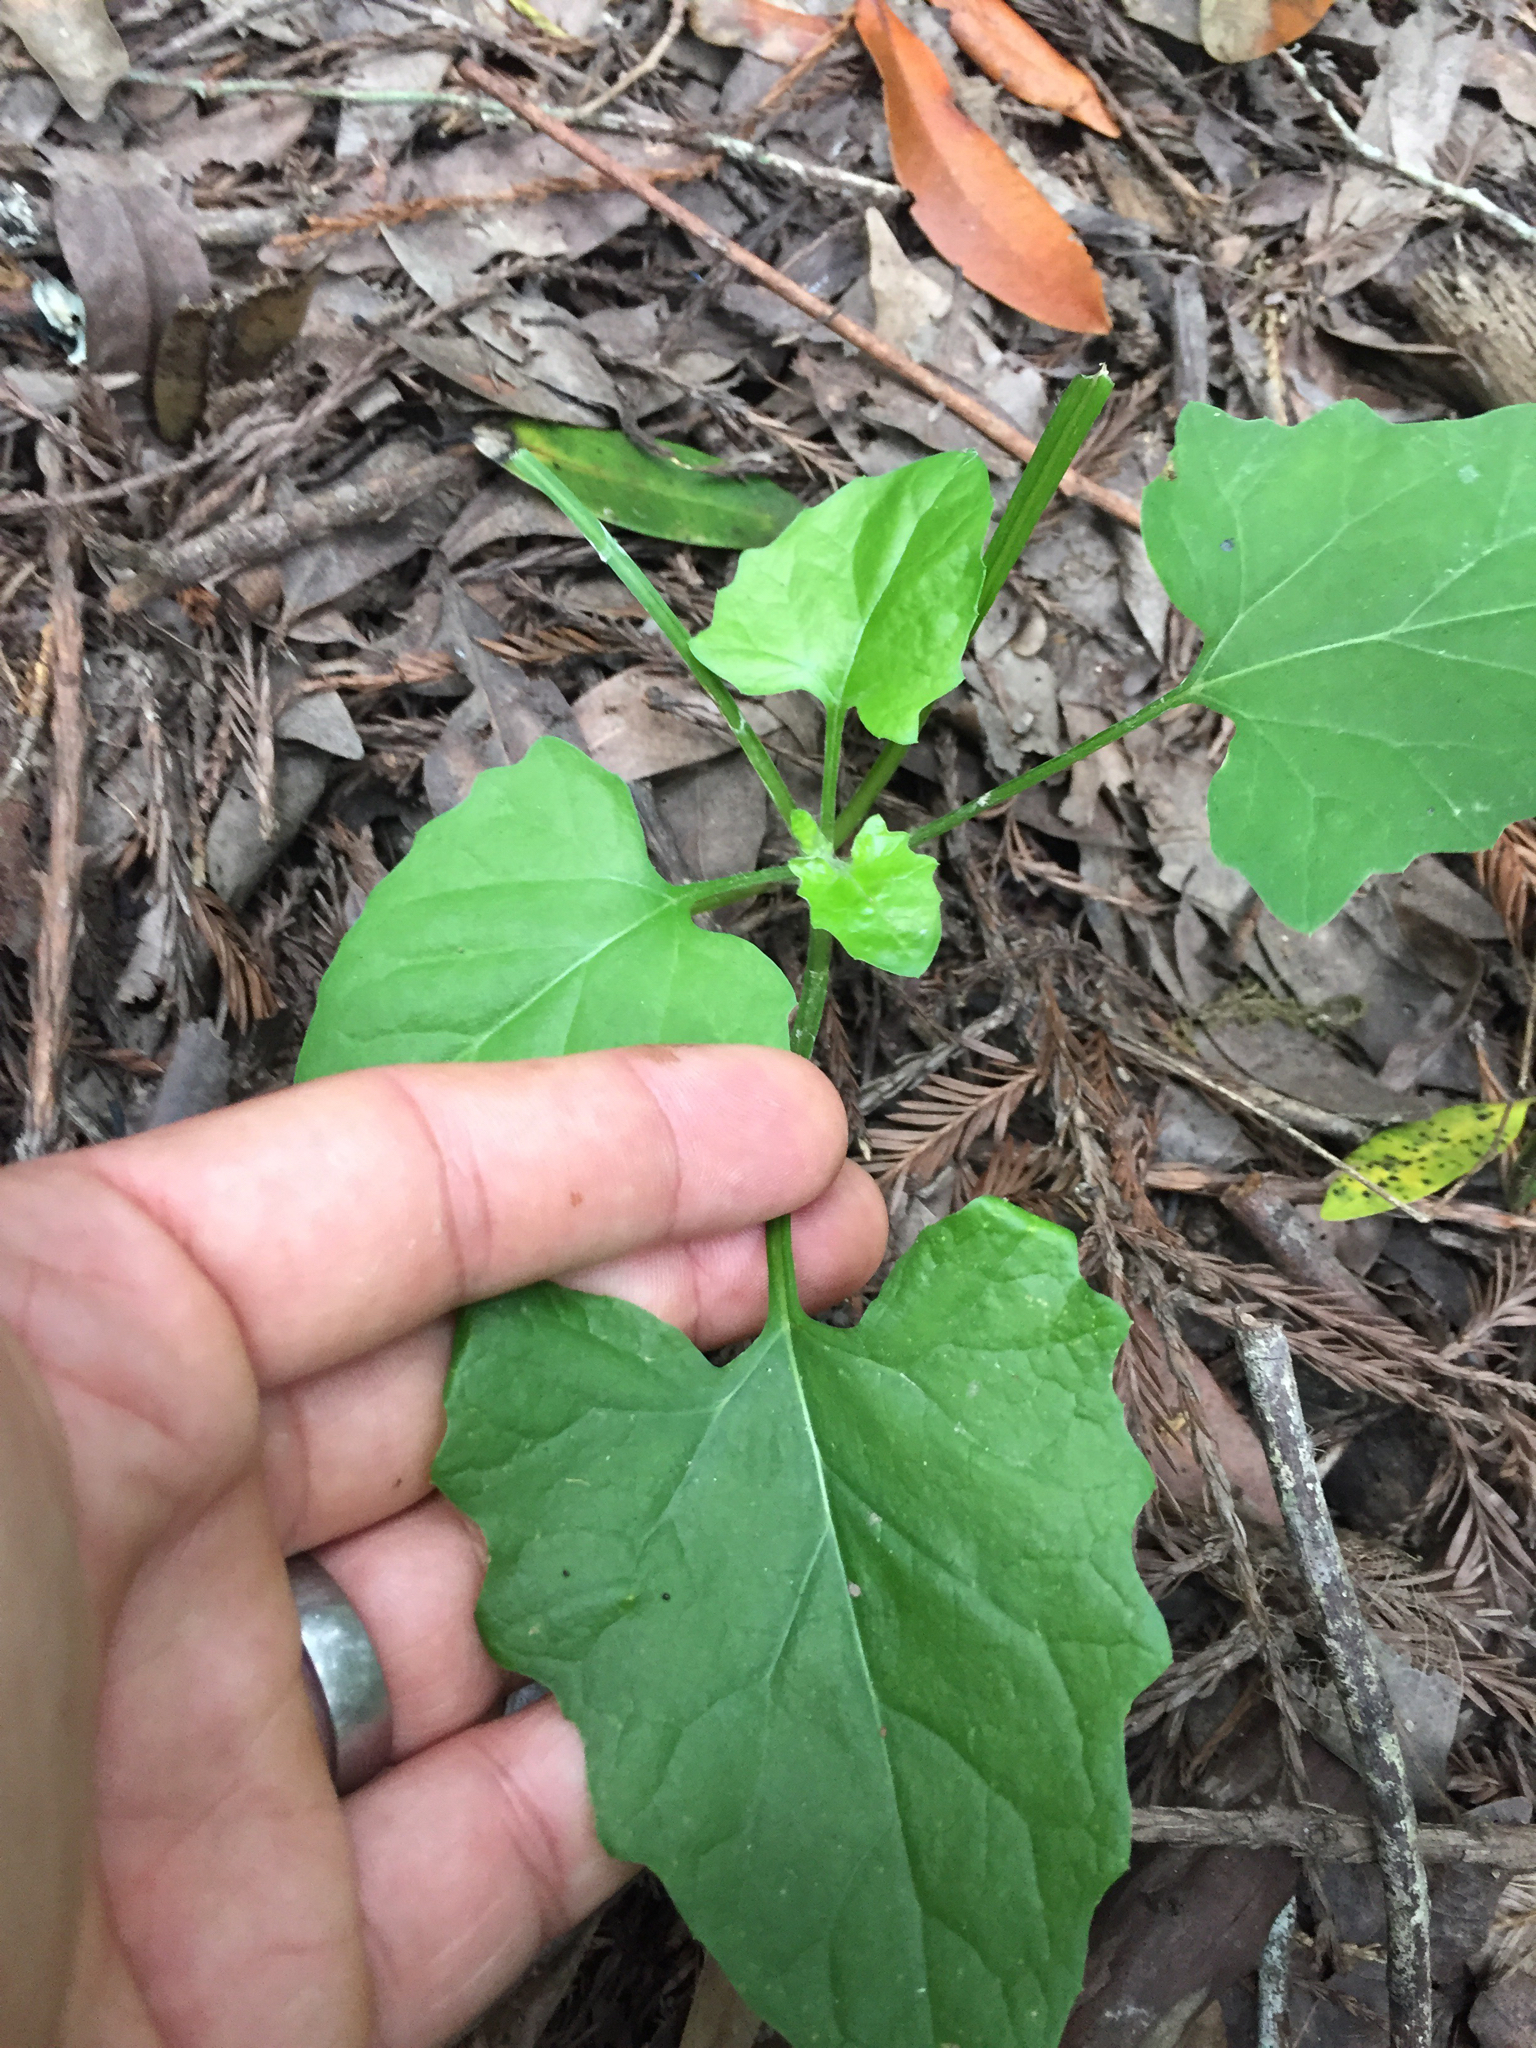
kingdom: Plantae
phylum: Tracheophyta
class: Magnoliopsida
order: Asterales
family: Asteraceae
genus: Adenocaulon
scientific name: Adenocaulon bicolor
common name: Trailplant
